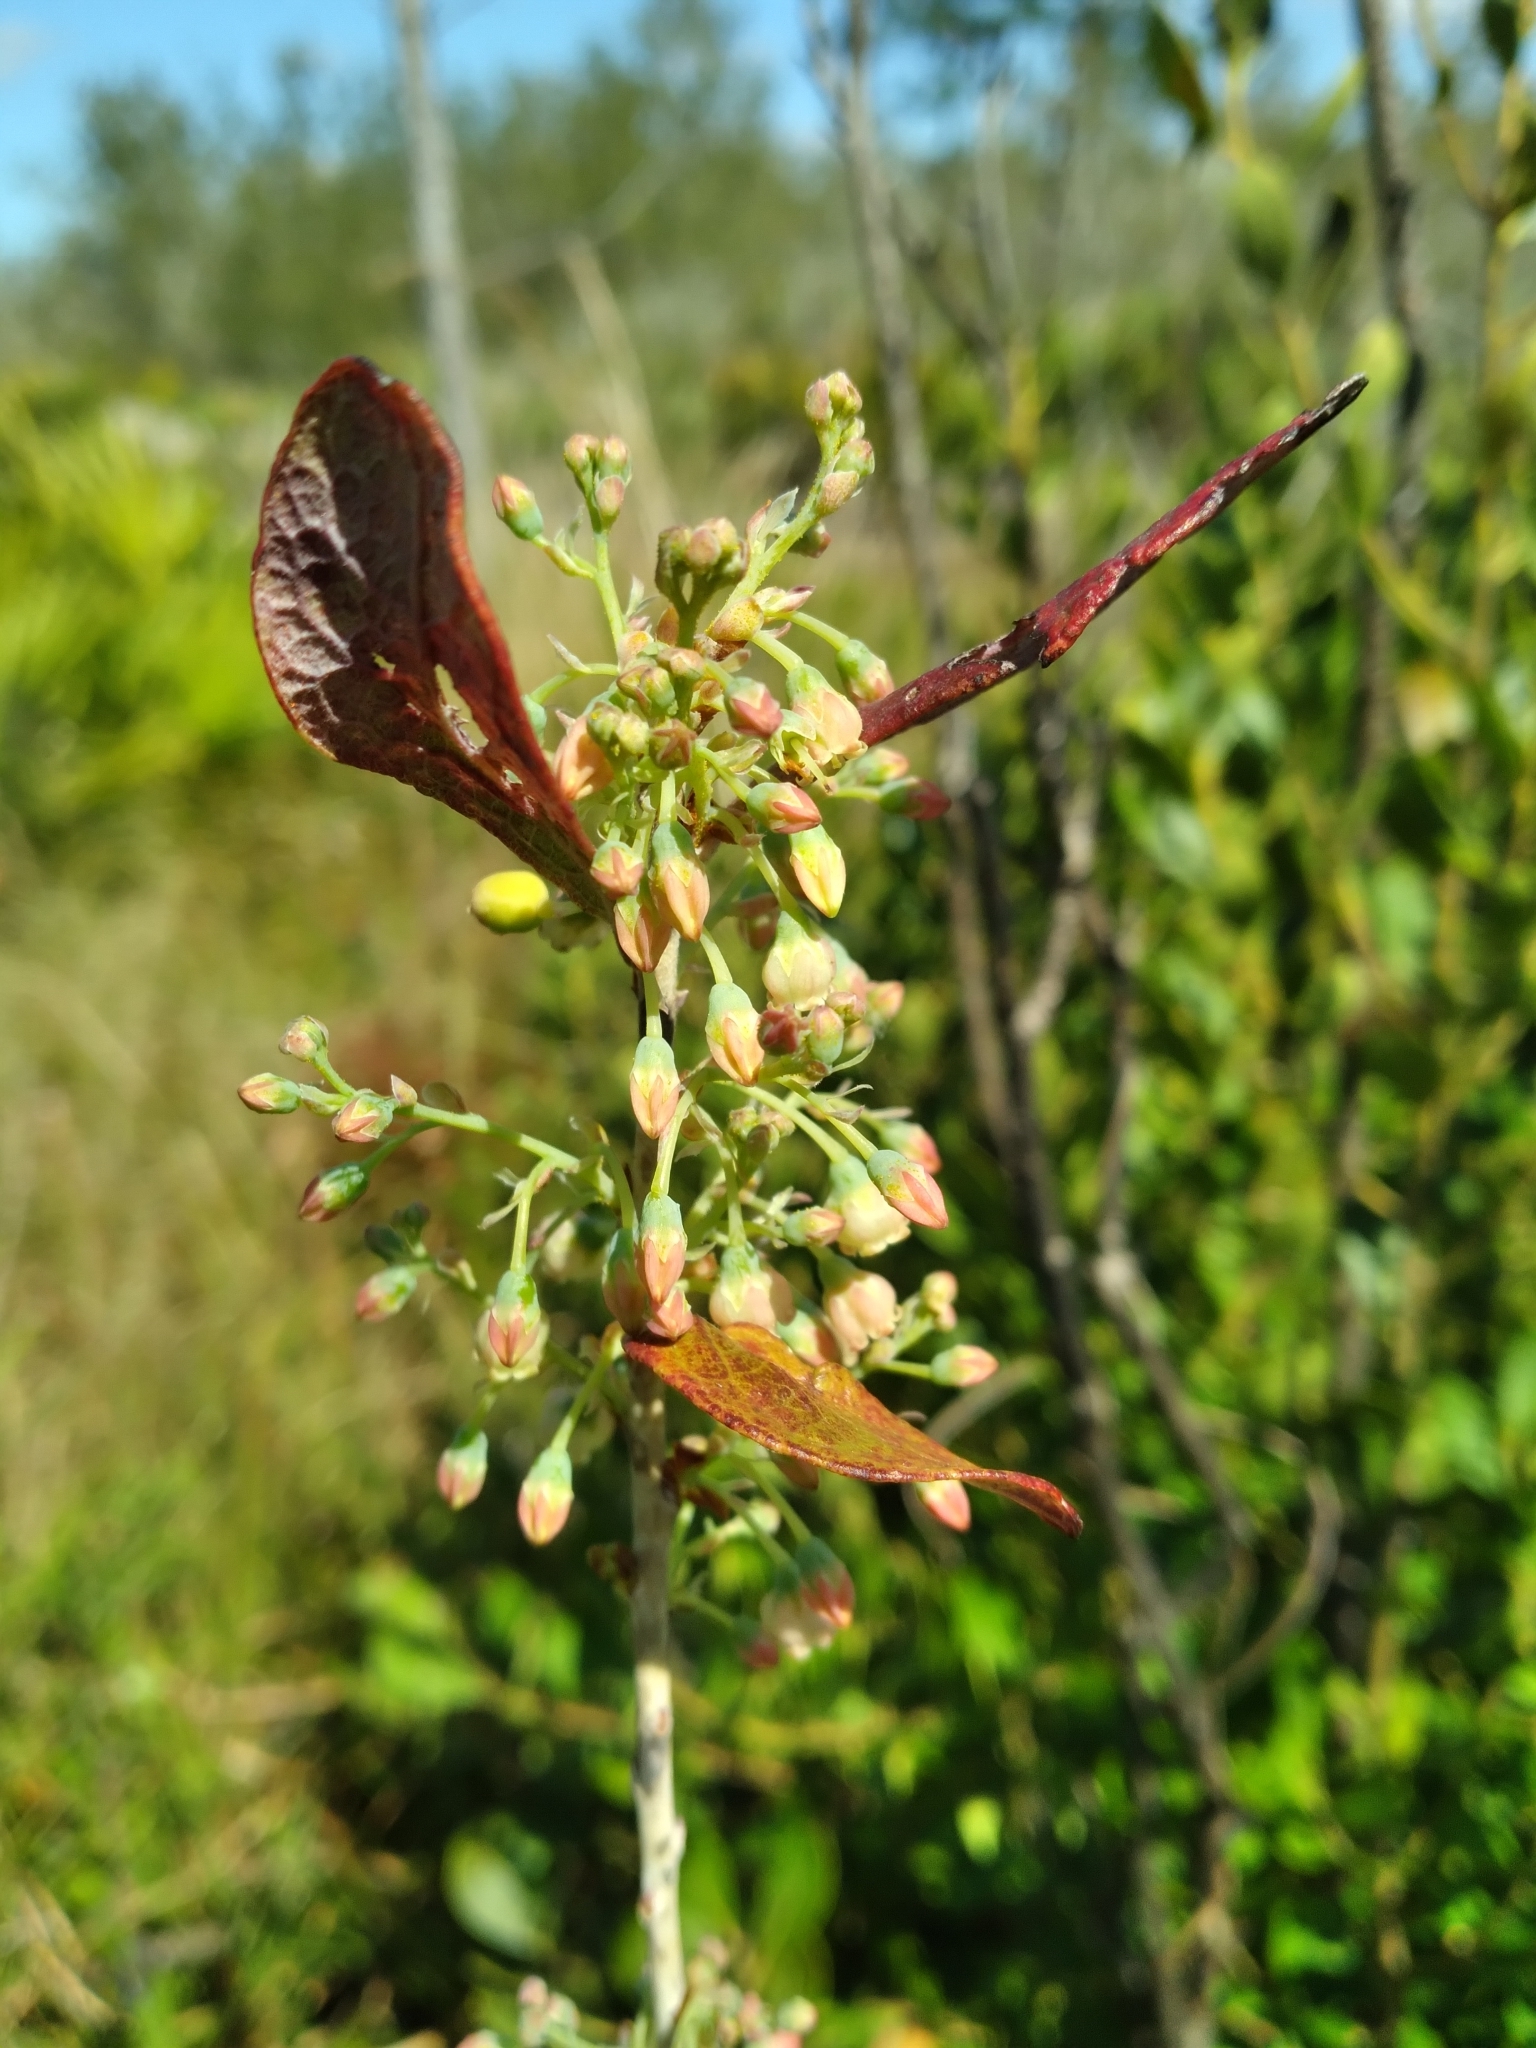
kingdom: Plantae
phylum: Tracheophyta
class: Magnoliopsida
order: Ericales
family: Ericaceae
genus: Gaylussacia
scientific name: Gaylussacia nana
